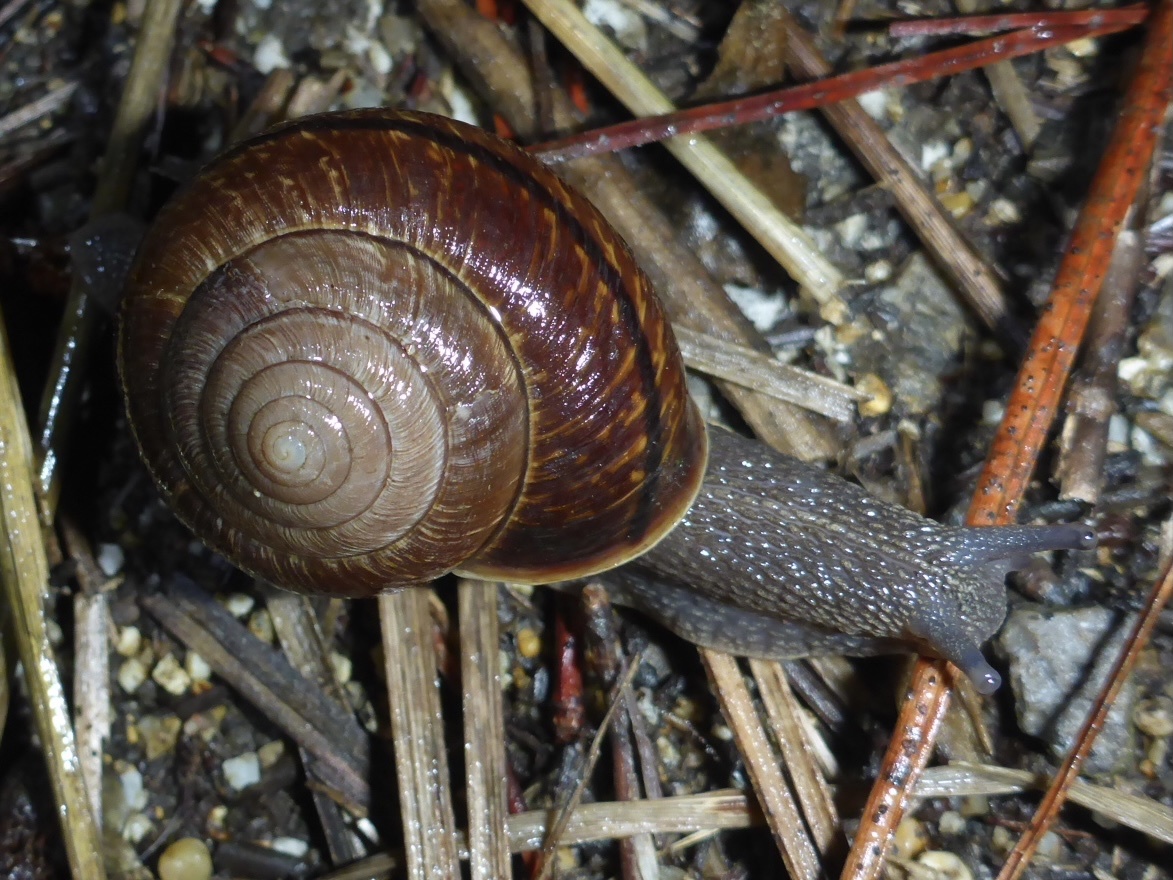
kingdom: Animalia
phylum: Mollusca
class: Gastropoda
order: Stylommatophora
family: Xanthonychidae
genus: Helminthoglypta
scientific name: Helminthoglypta arrosa
